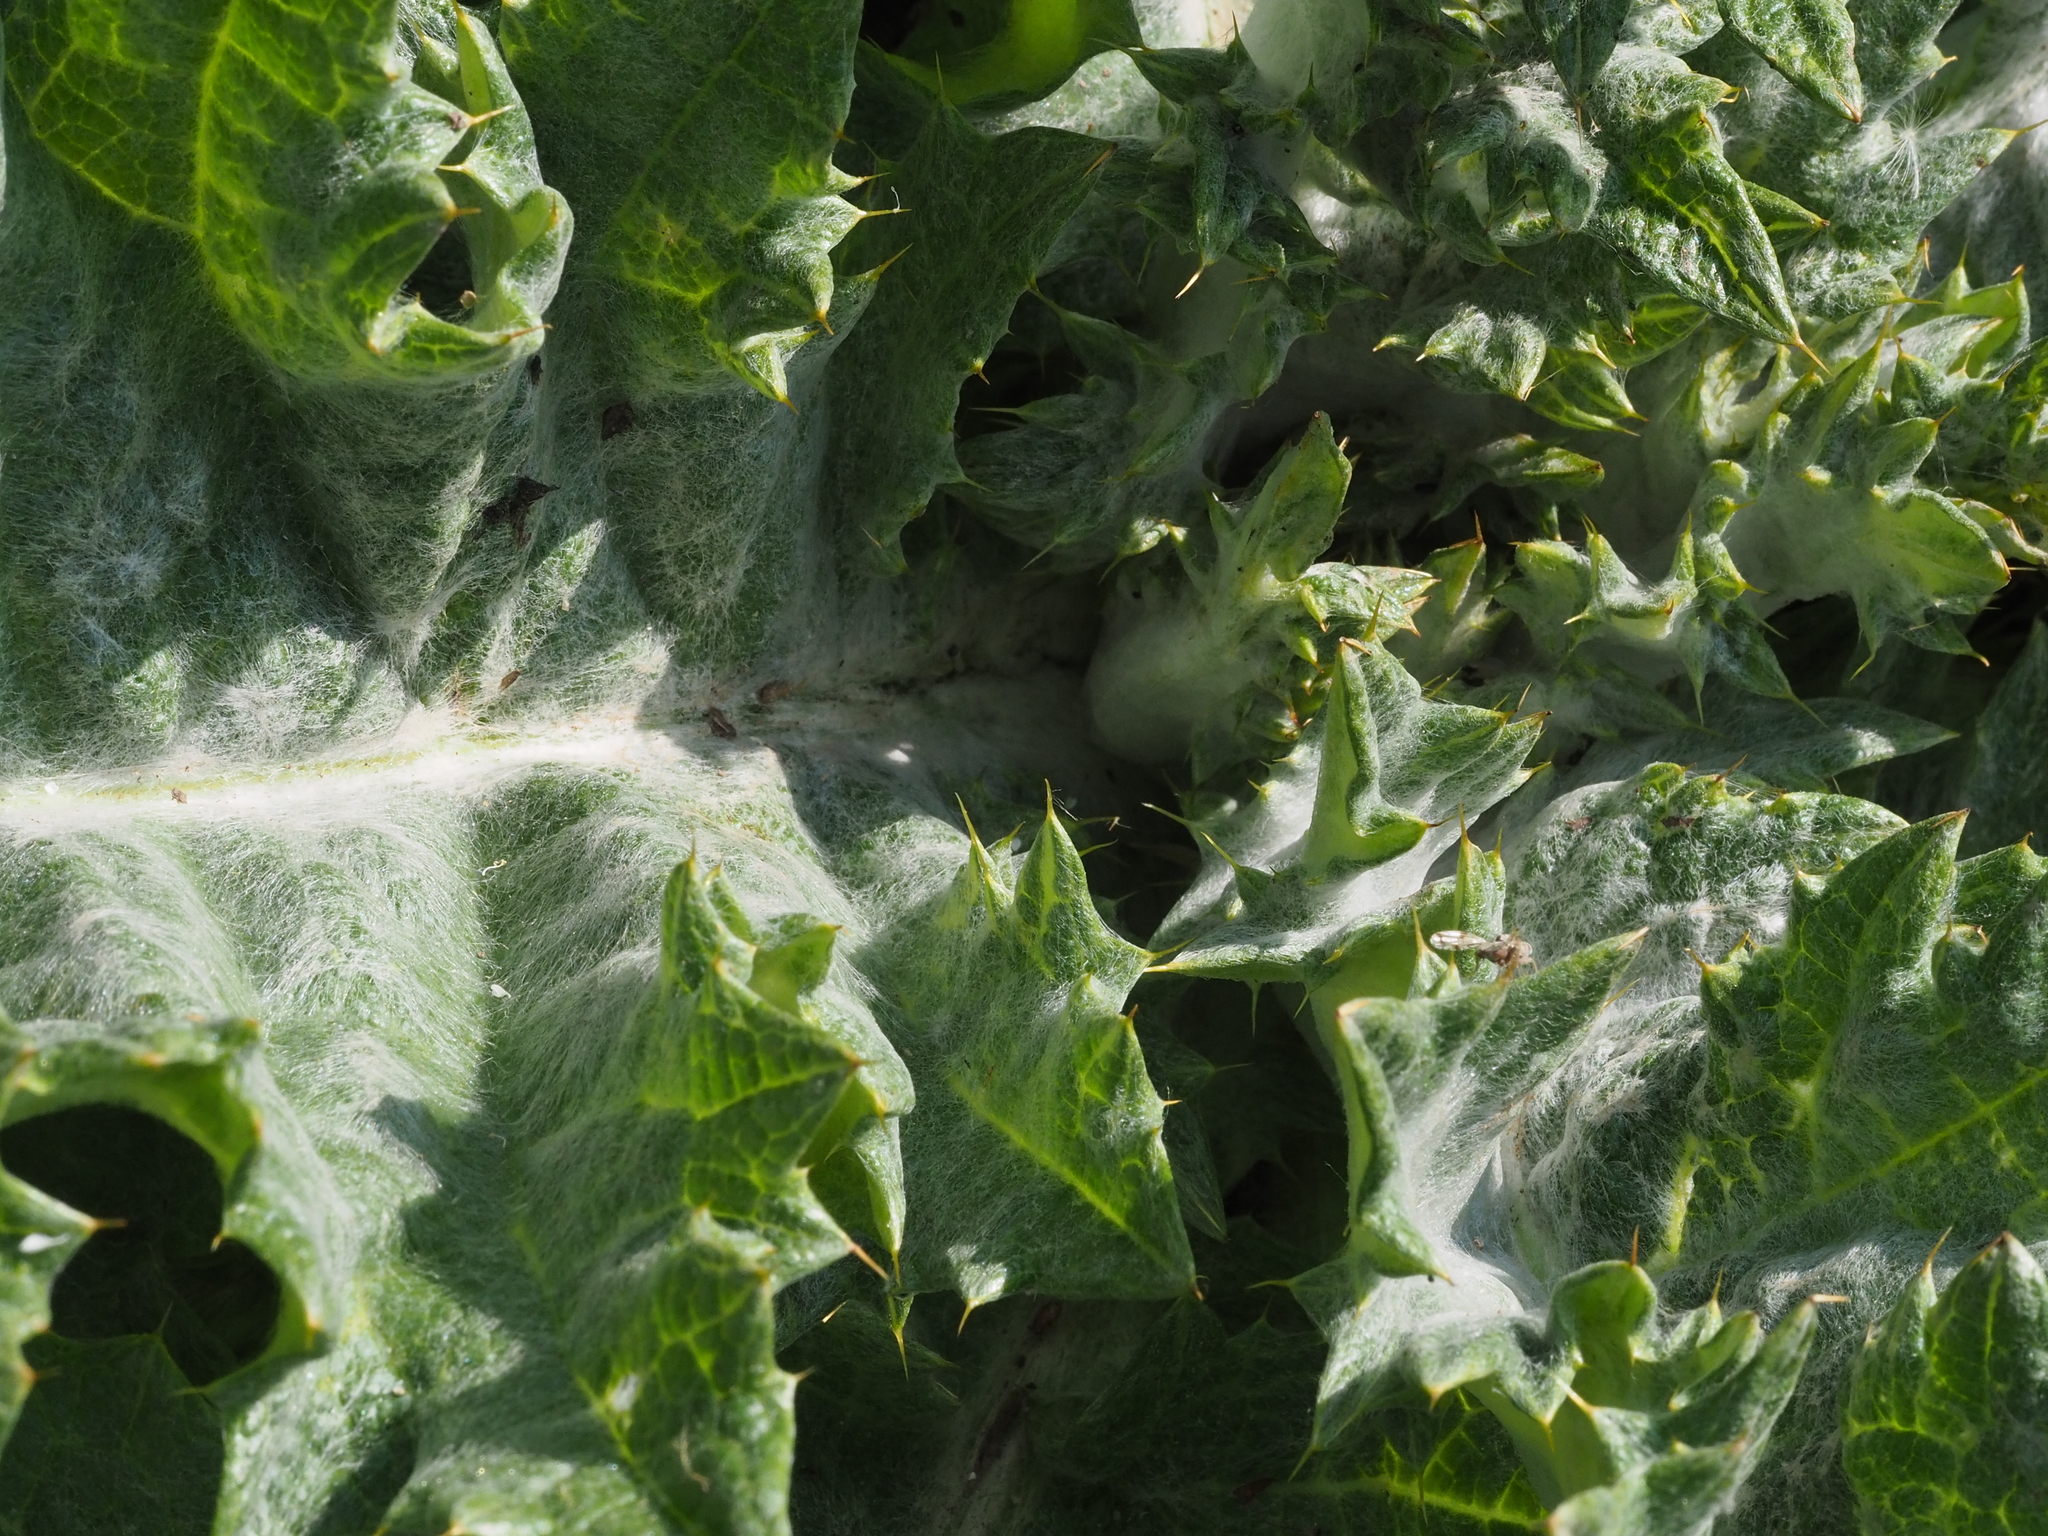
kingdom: Plantae
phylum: Tracheophyta
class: Magnoliopsida
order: Asterales
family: Asteraceae
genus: Onopordum
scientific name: Onopordum acanthium
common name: Scotch thistle
